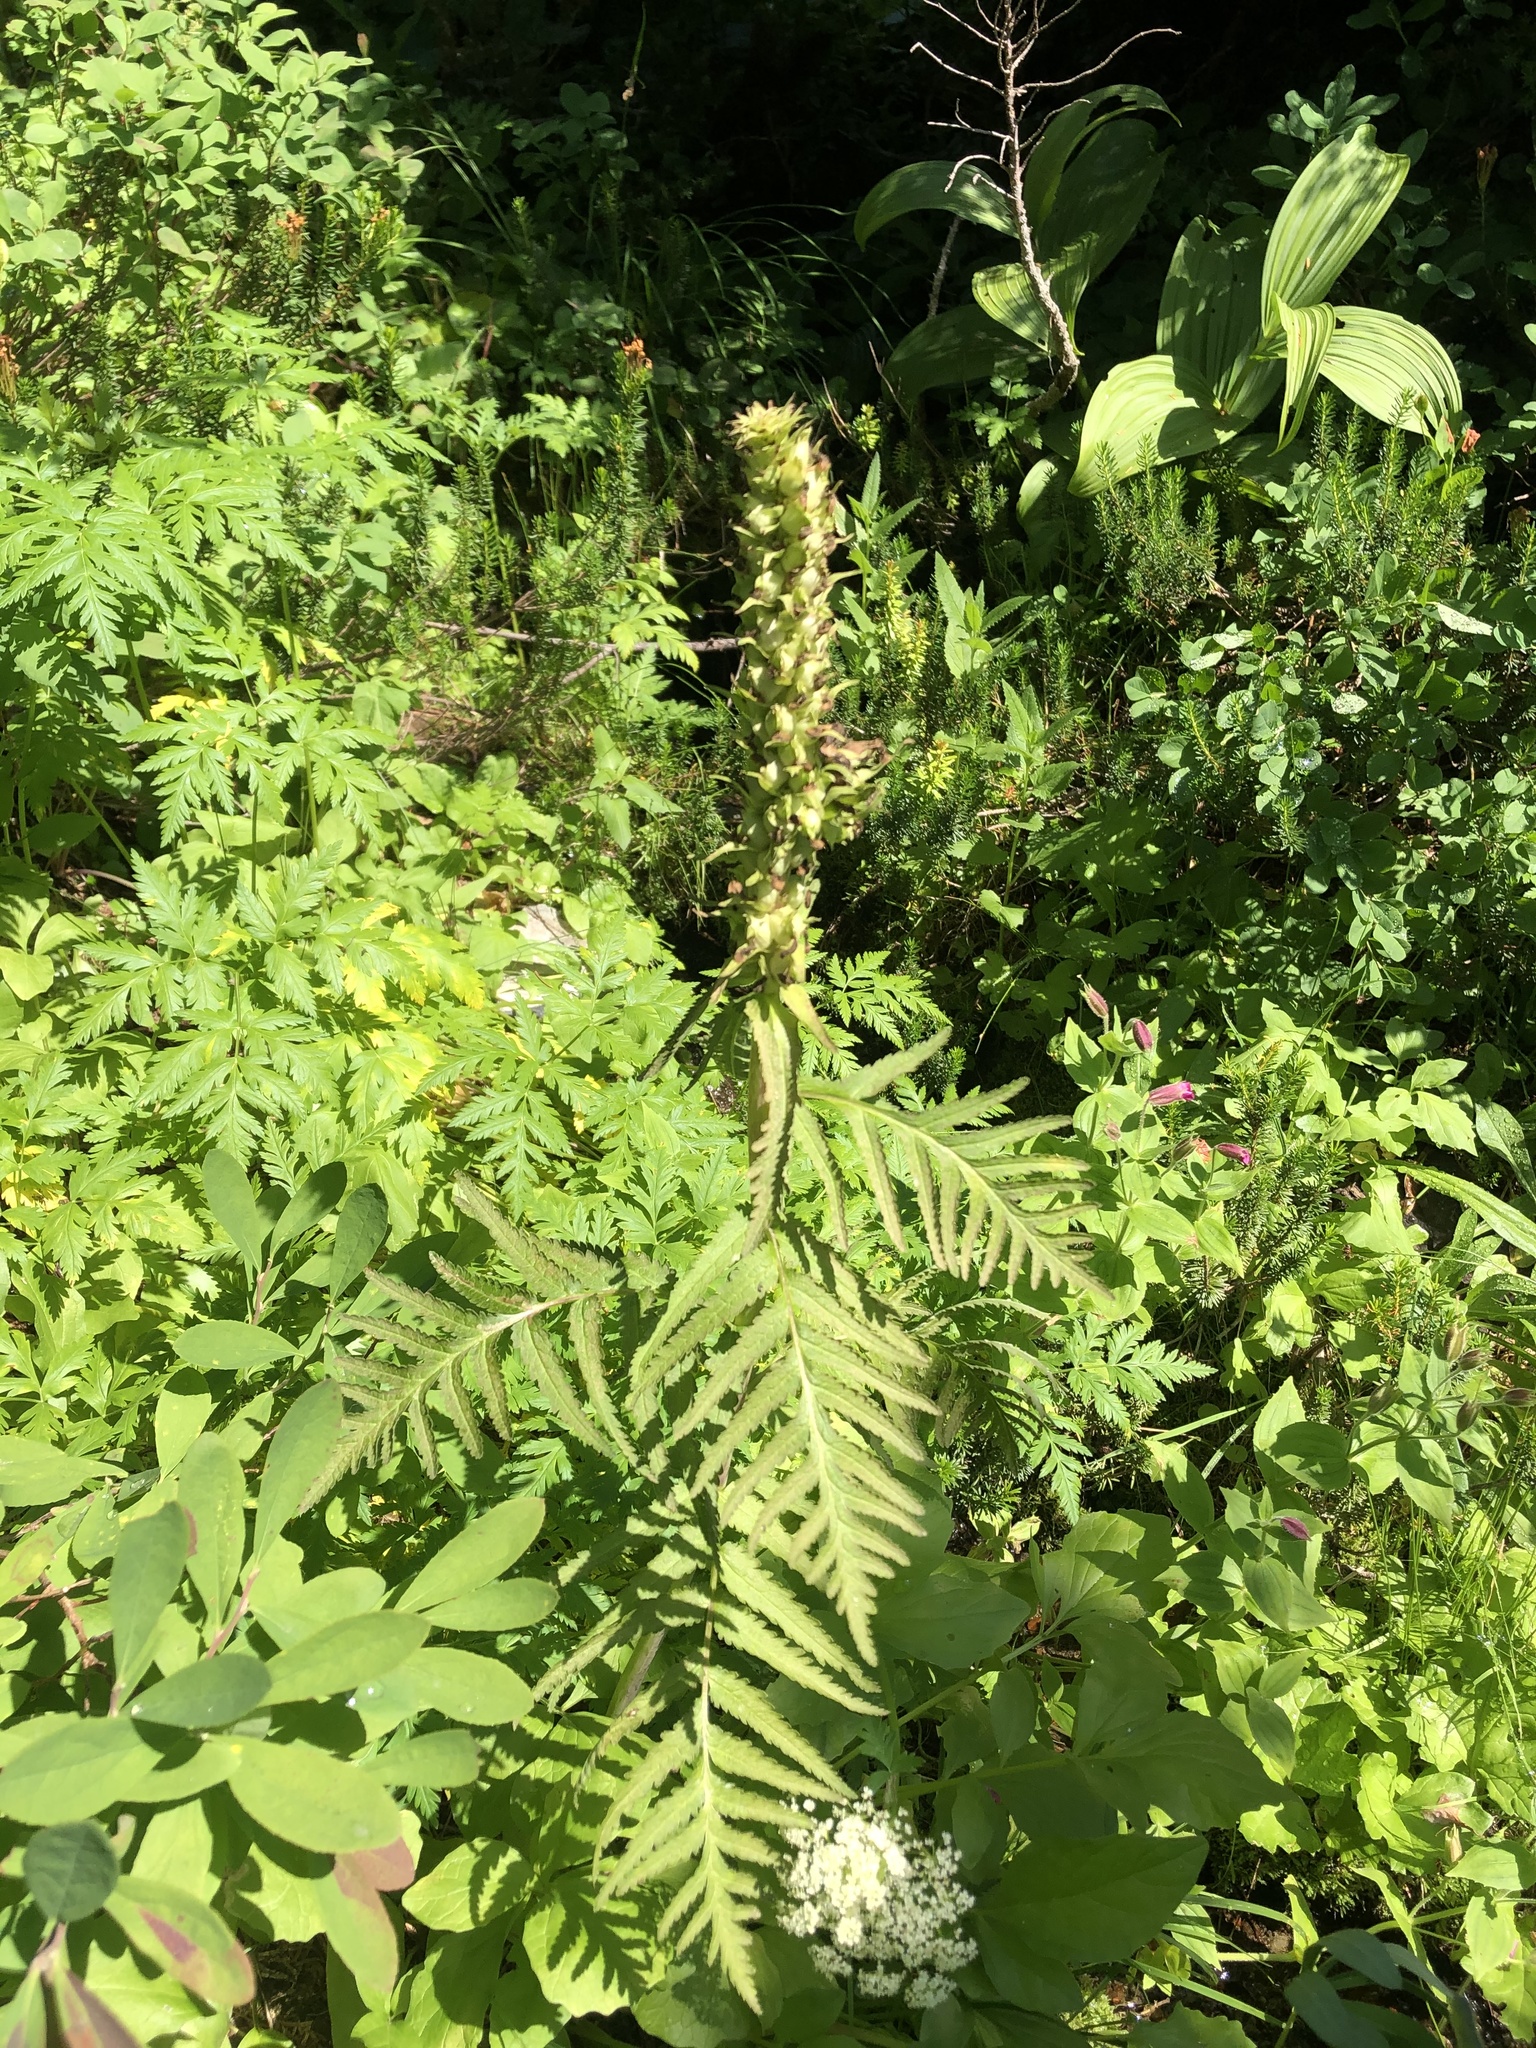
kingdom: Plantae
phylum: Tracheophyta
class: Magnoliopsida
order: Lamiales
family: Orobanchaceae
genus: Pedicularis
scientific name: Pedicularis bracteosa
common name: Bracted lousewort
